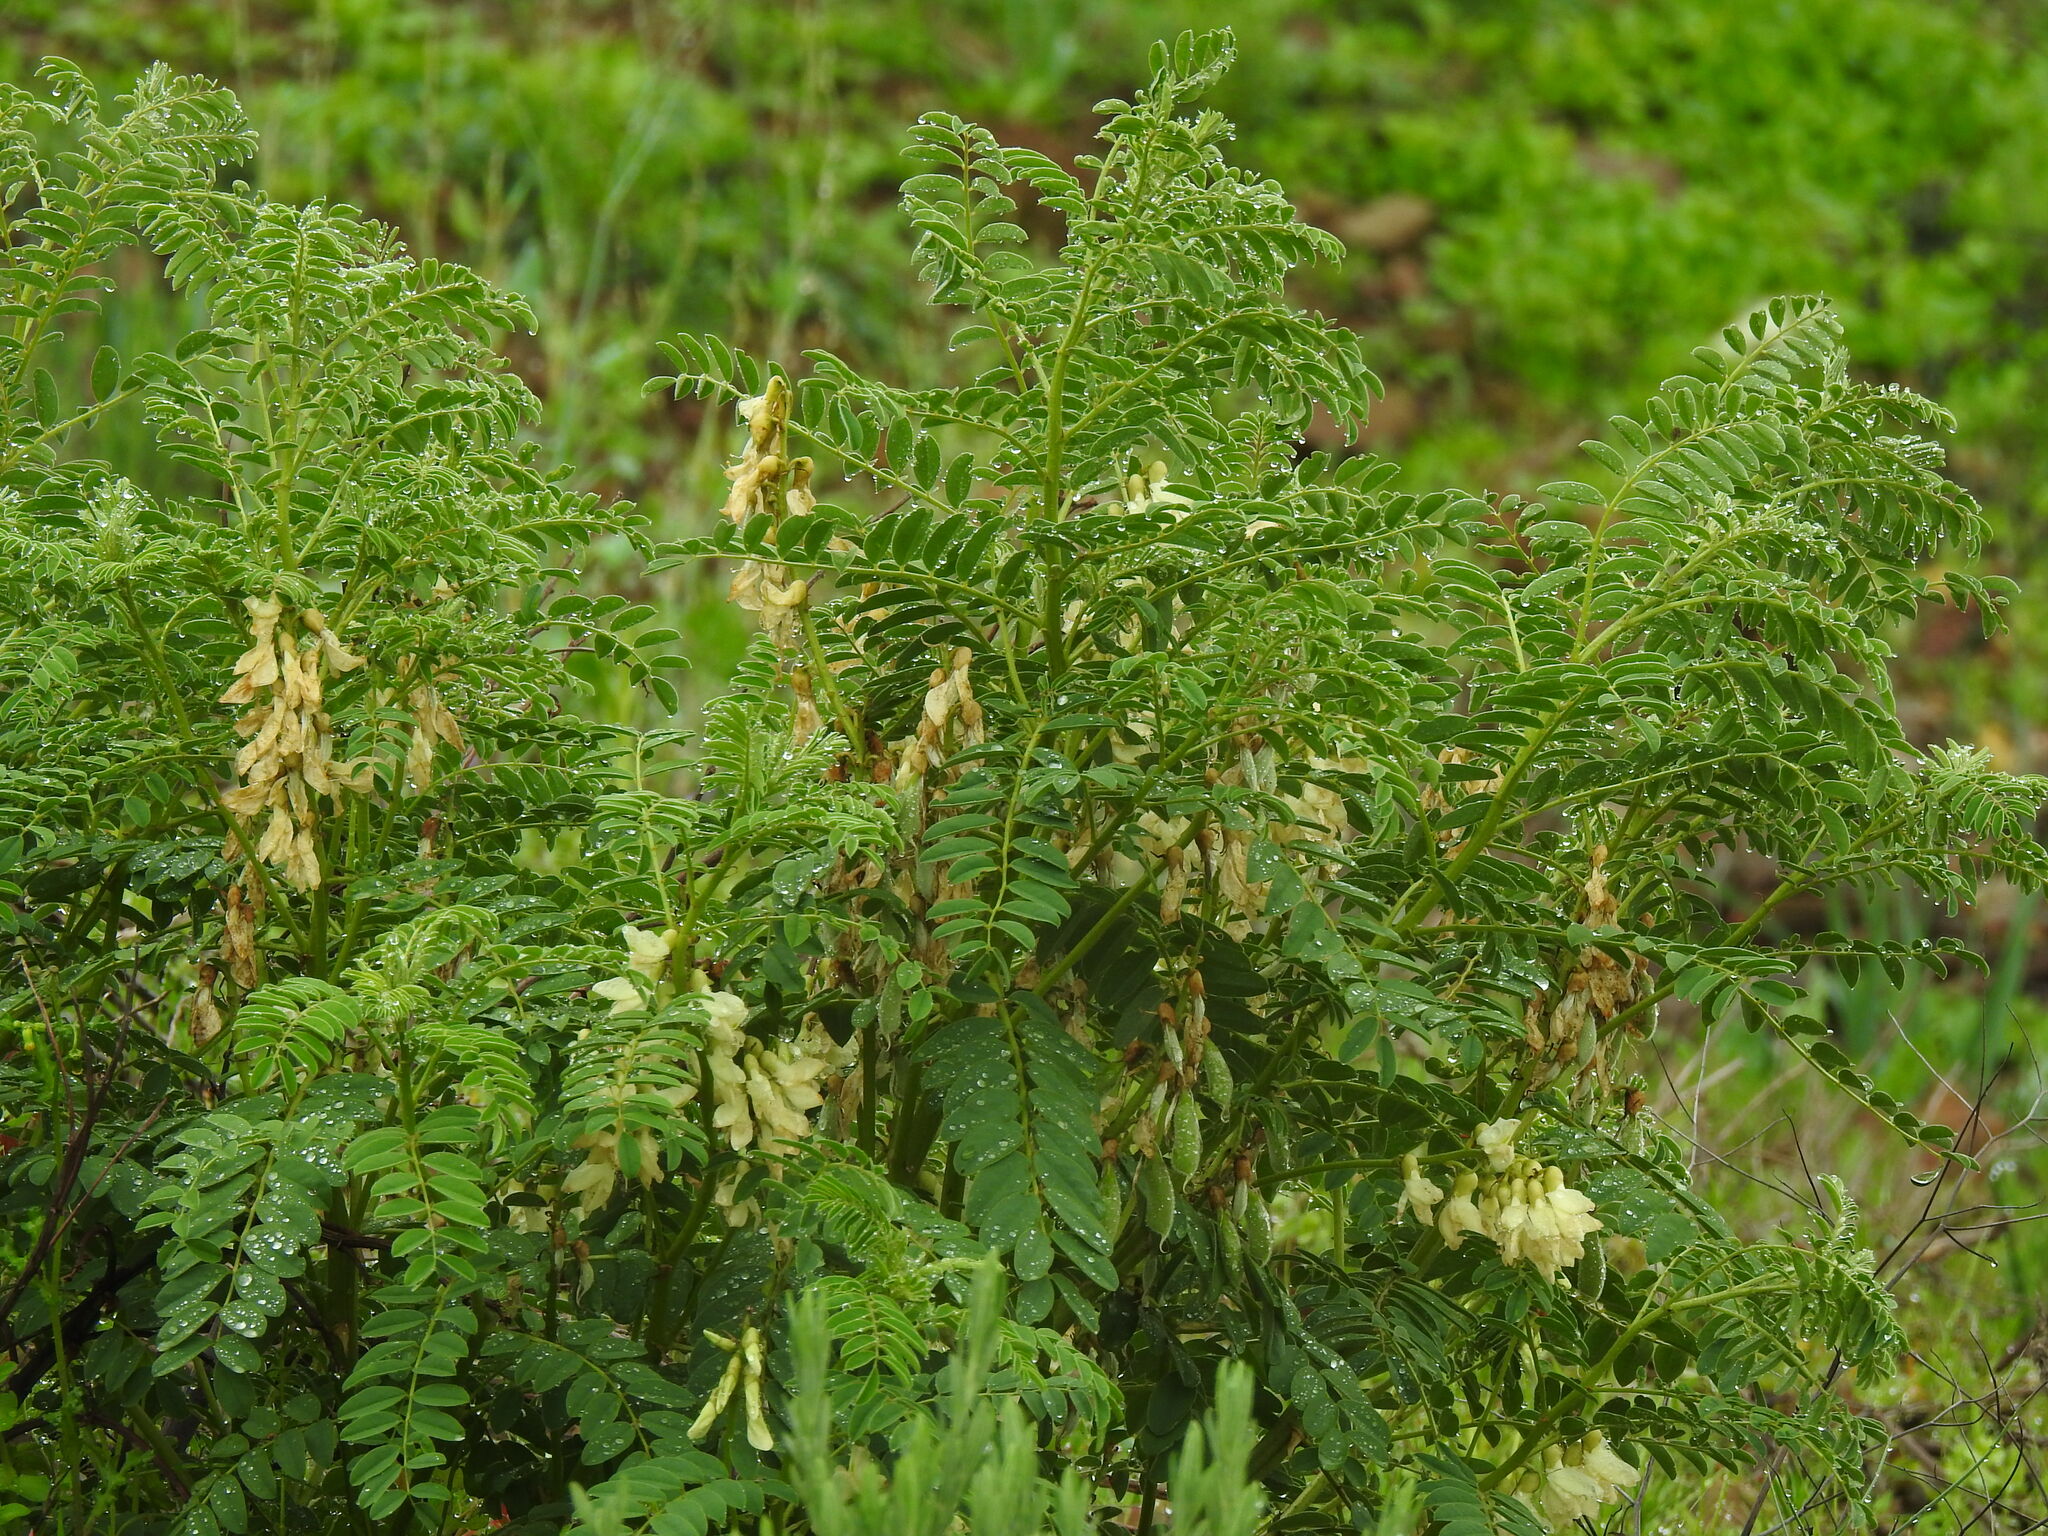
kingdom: Plantae
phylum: Tracheophyta
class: Magnoliopsida
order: Fabales
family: Fabaceae
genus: Erophaca
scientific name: Erophaca baetica
